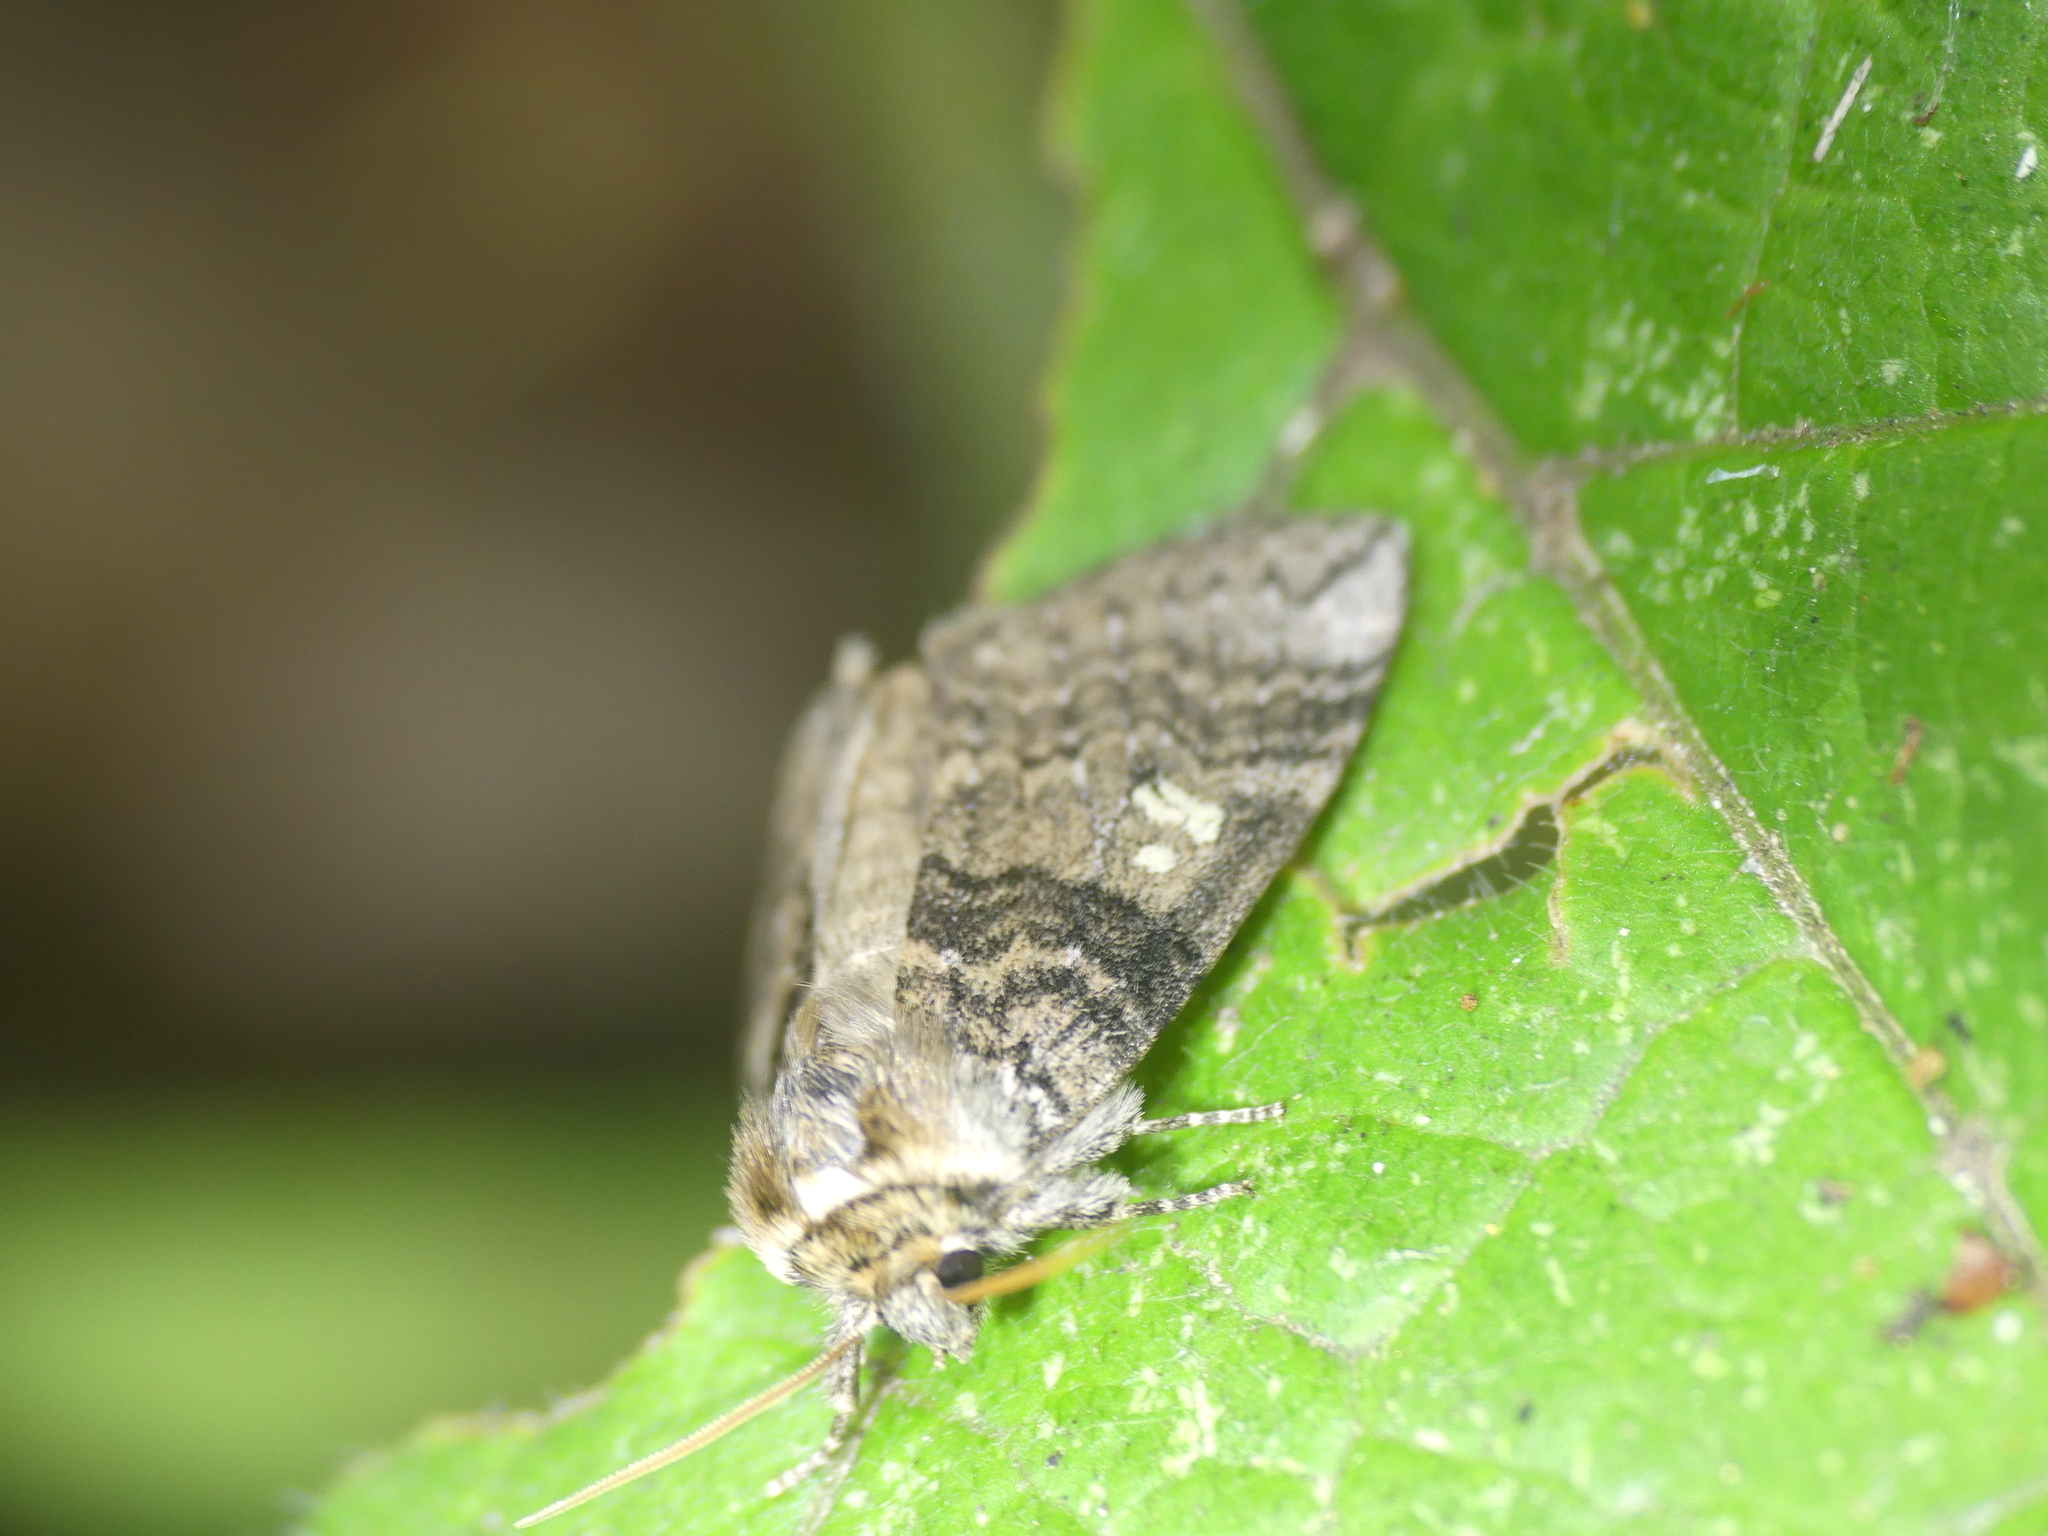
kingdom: Animalia
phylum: Arthropoda
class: Insecta
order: Lepidoptera
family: Drepanidae
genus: Tethea
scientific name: Tethea or
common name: Poplar lutestring
